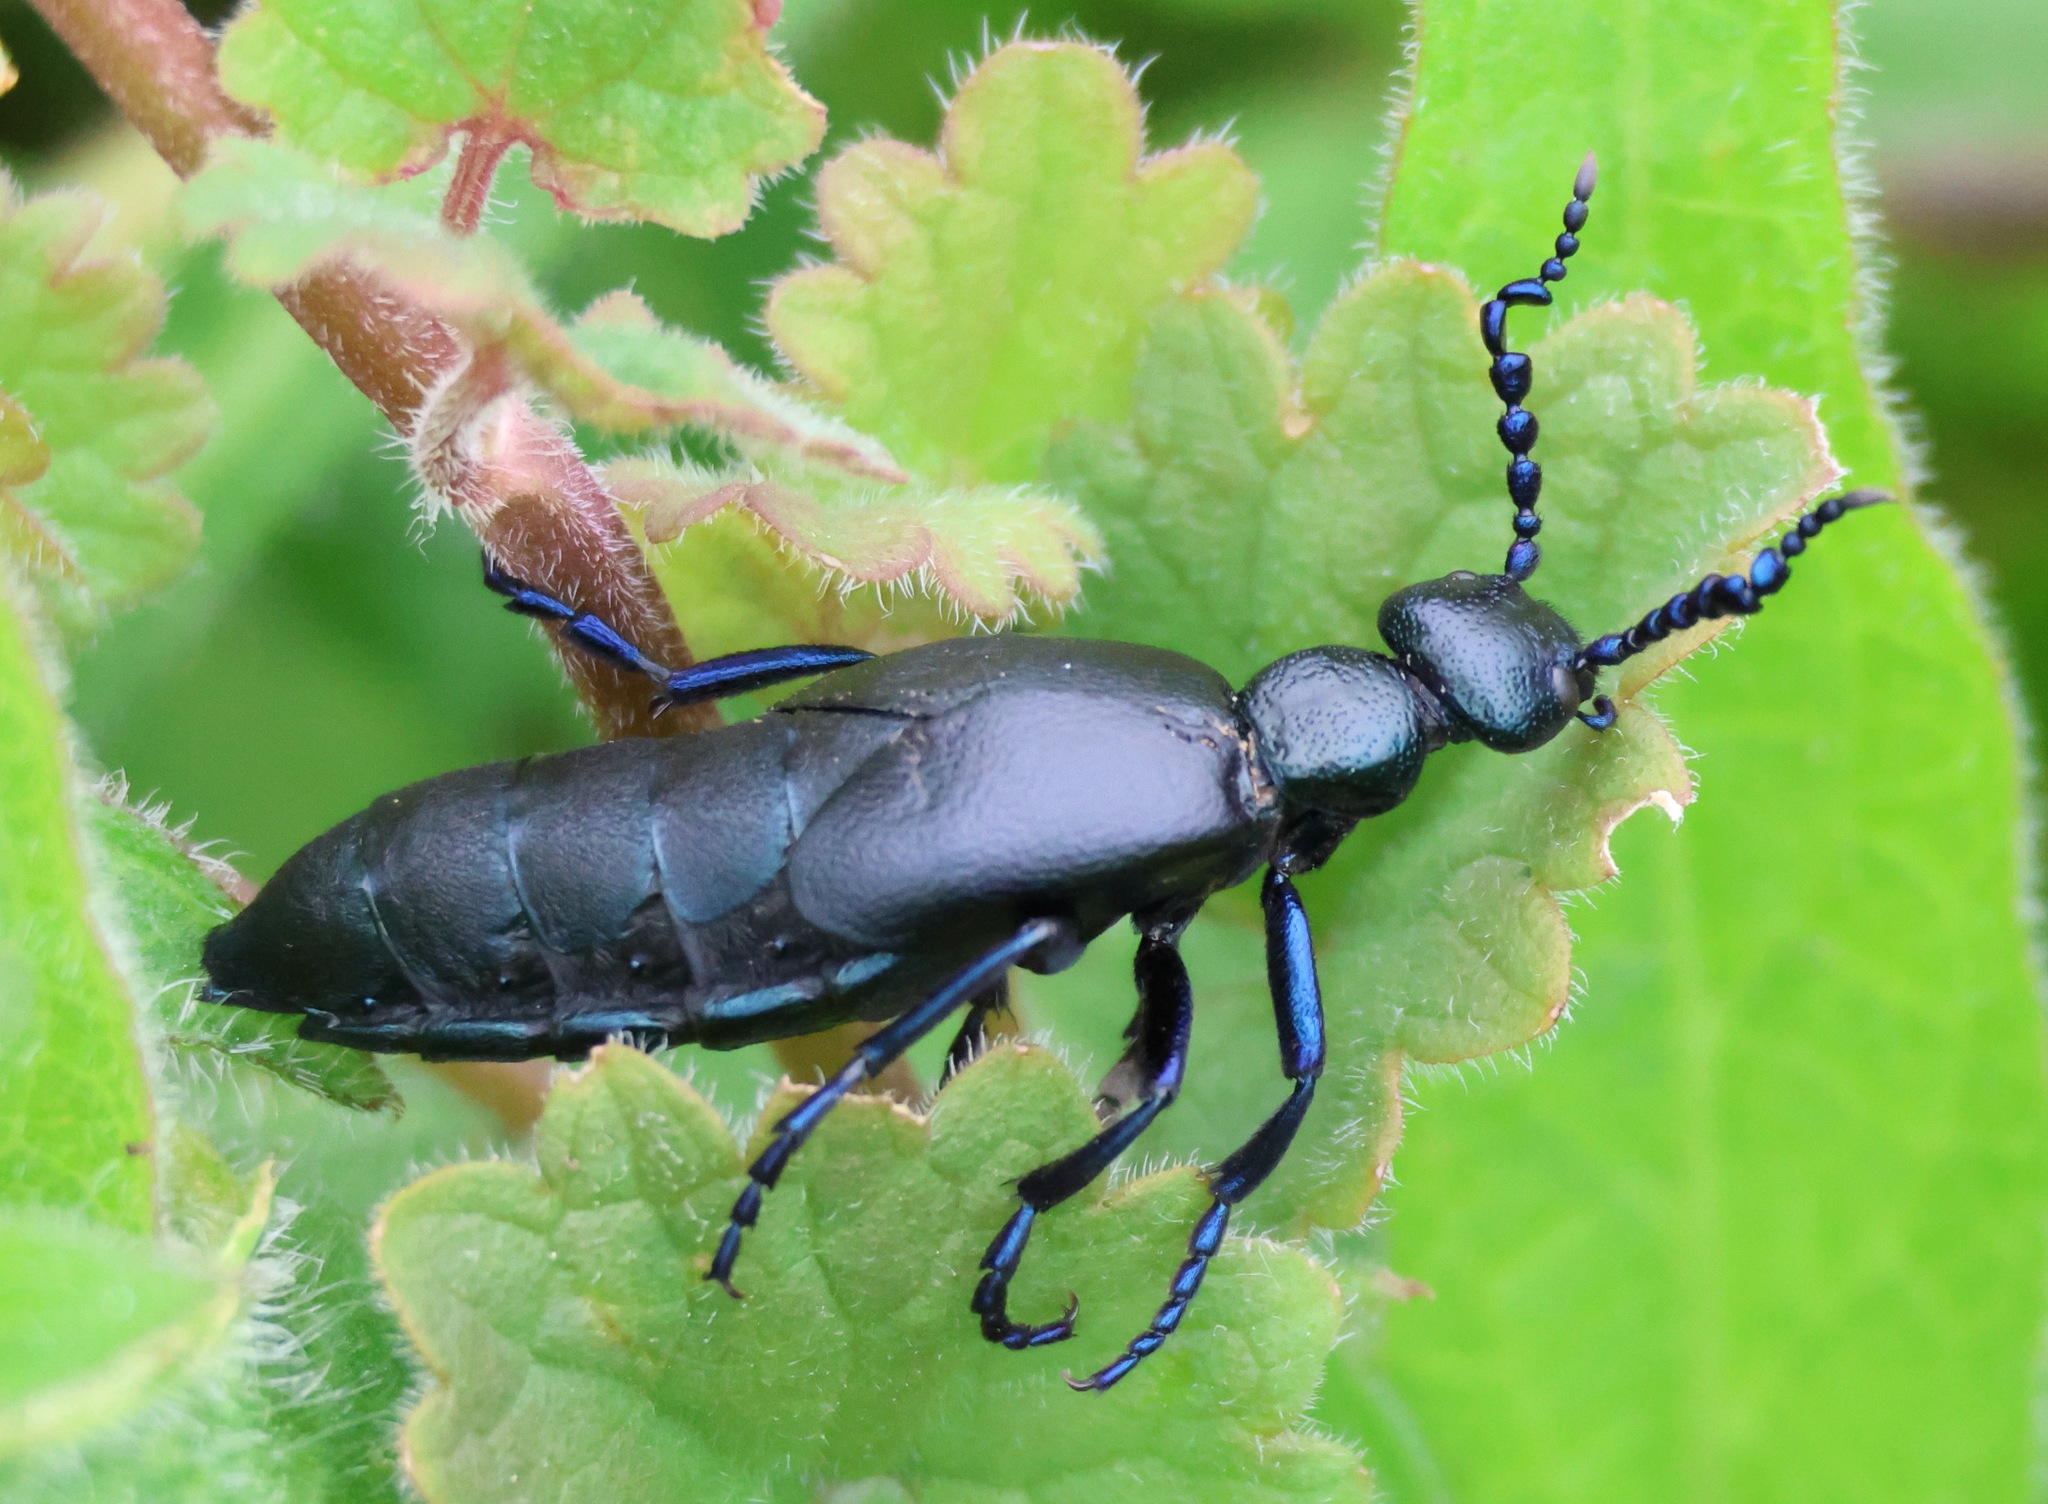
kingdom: Animalia
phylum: Arthropoda
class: Insecta
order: Coleoptera
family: Meloidae
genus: Meloe
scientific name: Meloe proscarabaeus
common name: Black oil-beetle
